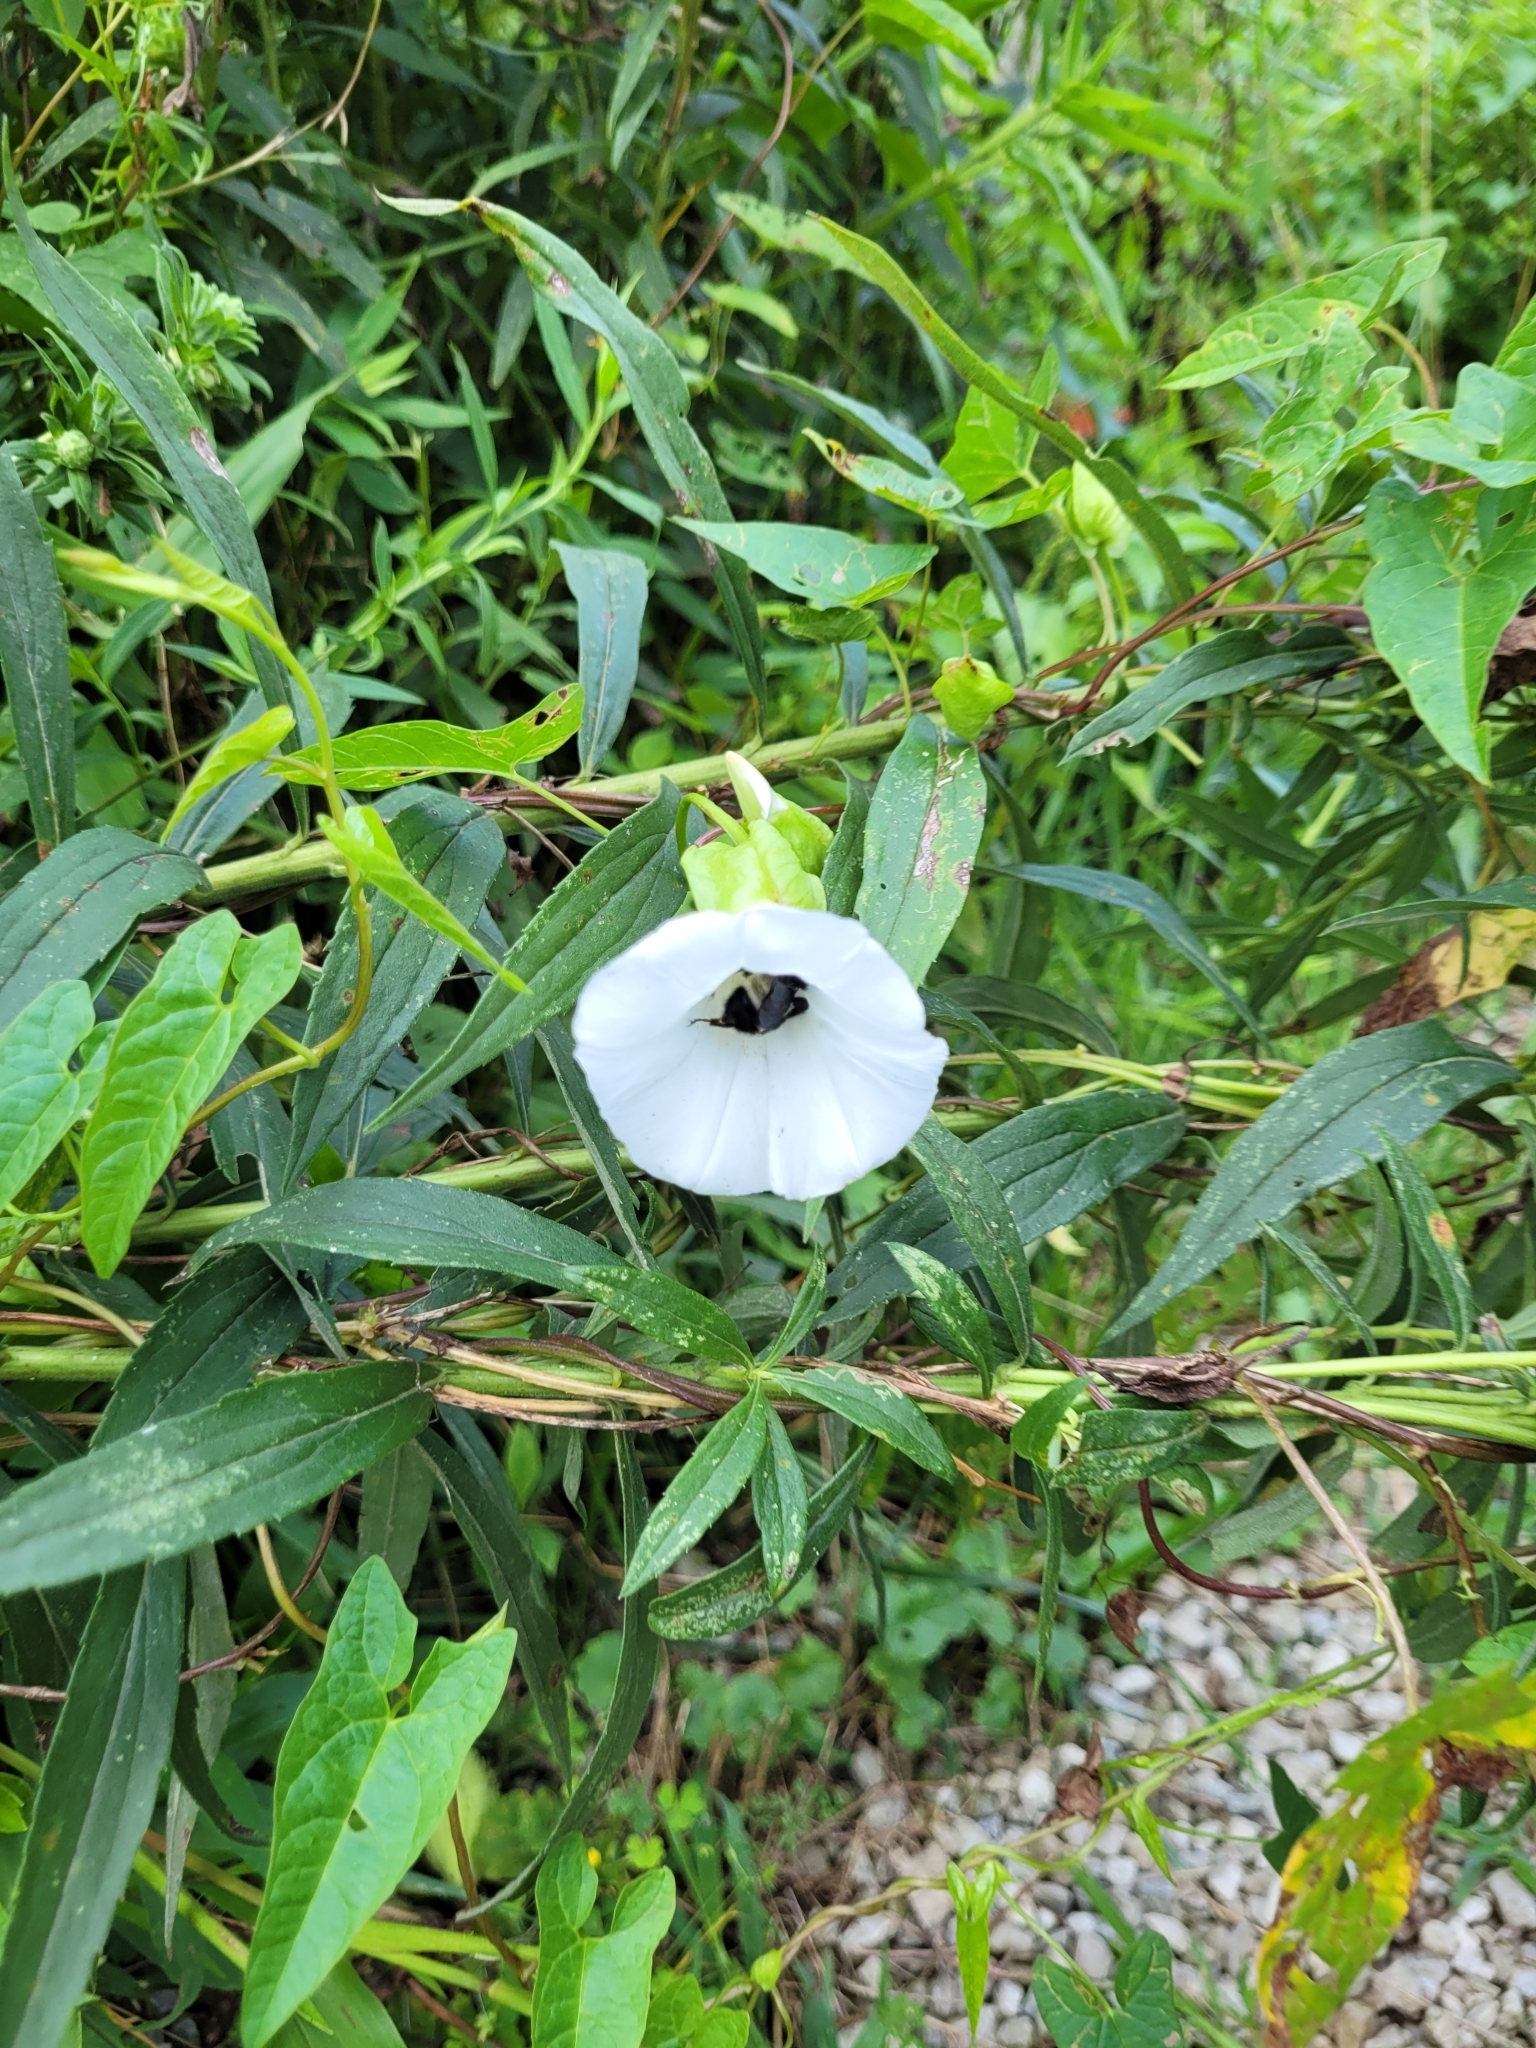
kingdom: Animalia
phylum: Arthropoda
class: Insecta
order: Hymenoptera
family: Apidae
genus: Bombus
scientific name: Bombus pensylvanicus
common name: Bumble bee
